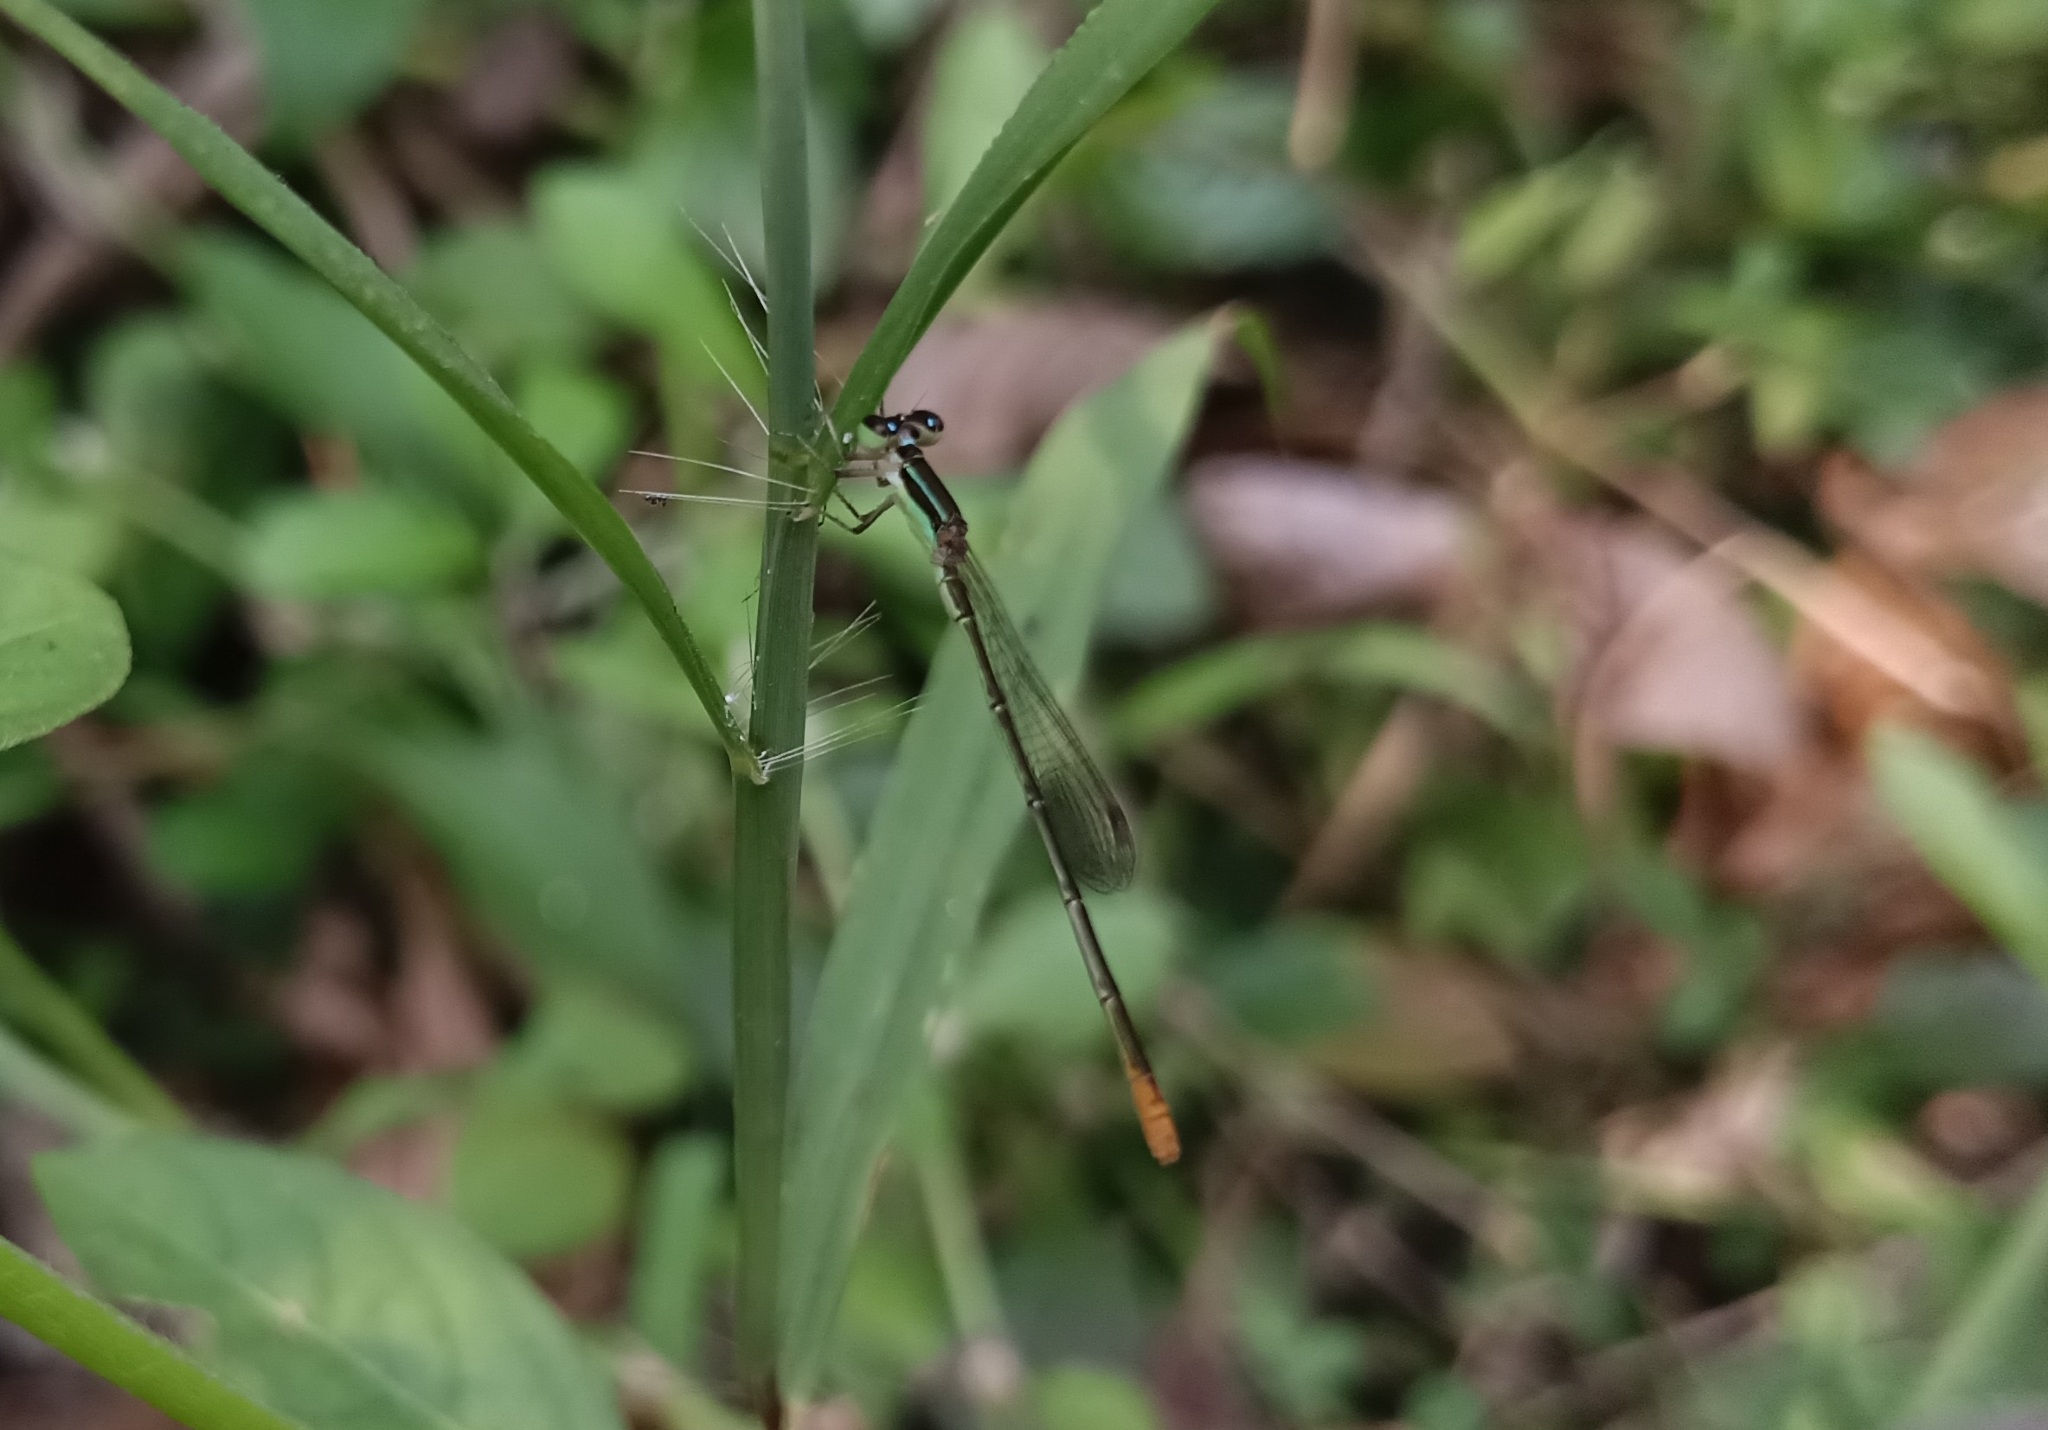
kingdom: Animalia
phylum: Arthropoda
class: Insecta
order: Odonata
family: Coenagrionidae
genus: Agriocnemis
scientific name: Agriocnemis pygmaea
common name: Pygmy wisp
